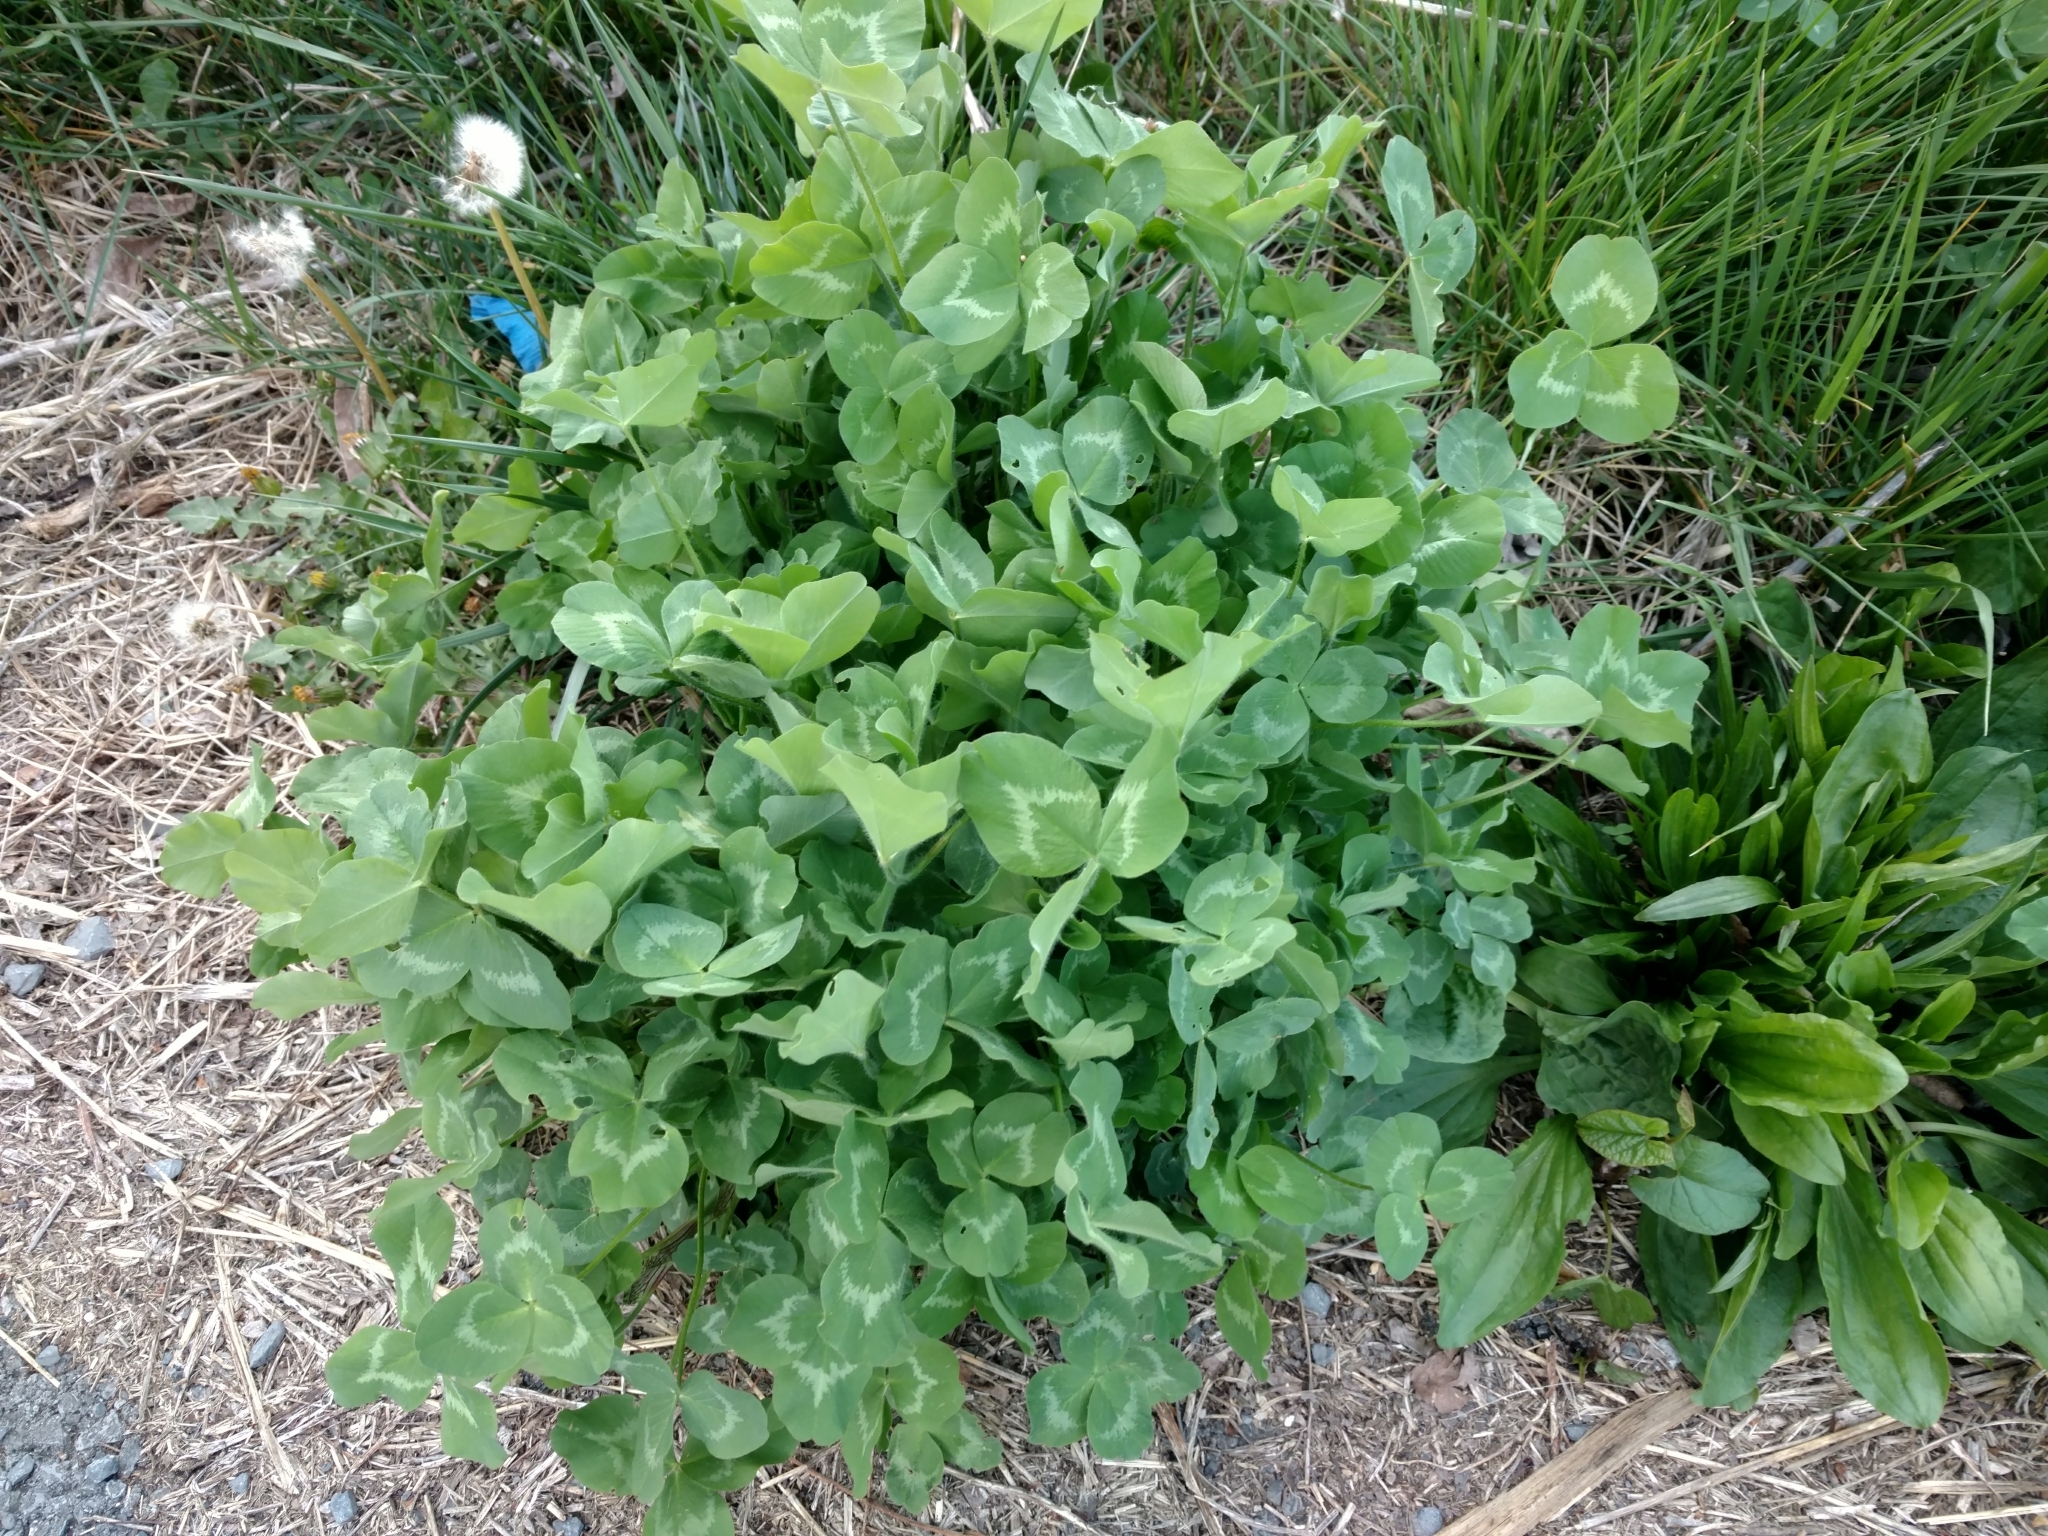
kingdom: Plantae
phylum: Tracheophyta
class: Magnoliopsida
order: Fabales
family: Fabaceae
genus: Trifolium
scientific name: Trifolium pratense
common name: Red clover
